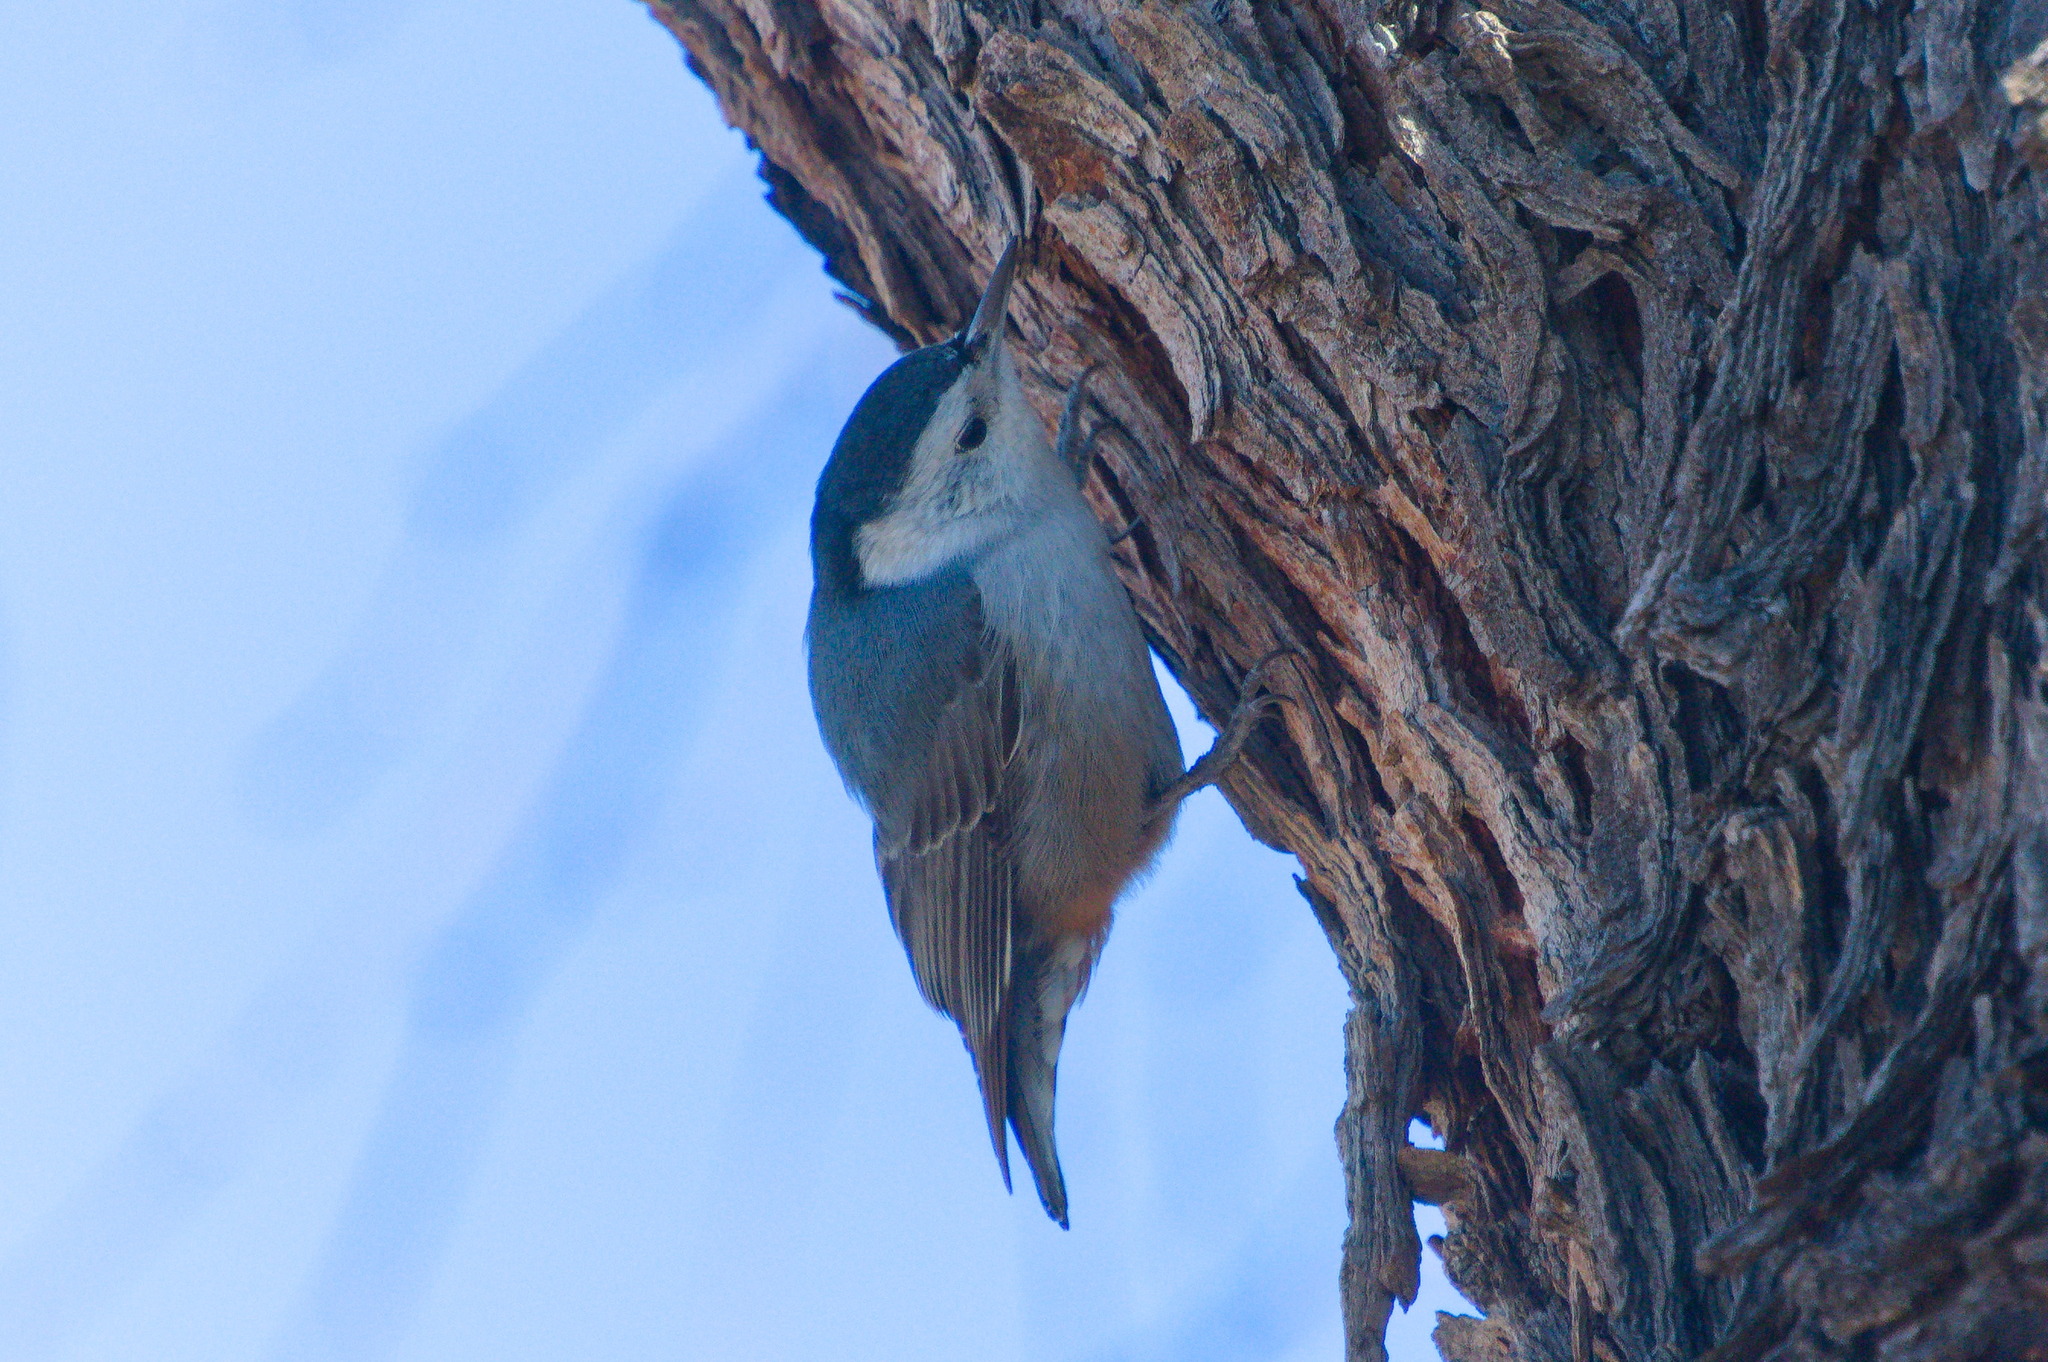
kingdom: Animalia
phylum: Chordata
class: Aves
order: Passeriformes
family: Sittidae
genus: Sitta
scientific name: Sitta carolinensis
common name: White-breasted nuthatch
